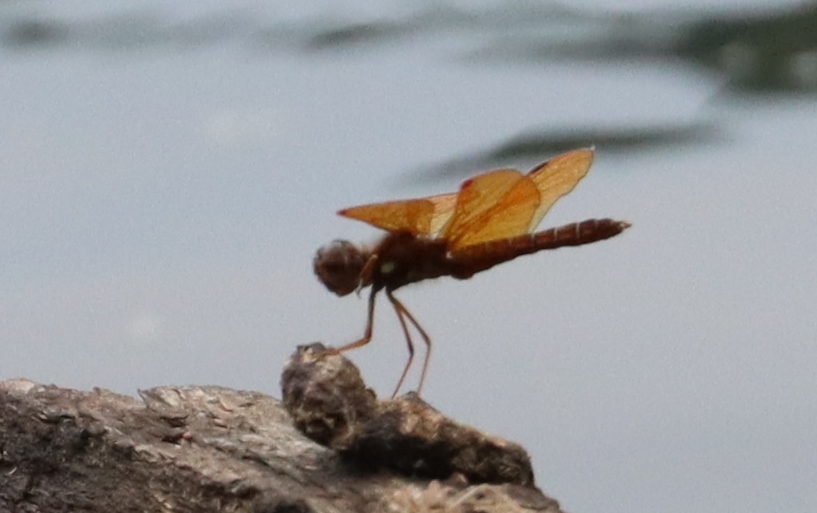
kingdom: Animalia
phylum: Arthropoda
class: Insecta
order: Odonata
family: Libellulidae
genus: Perithemis
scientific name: Perithemis tenera
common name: Eastern amberwing
